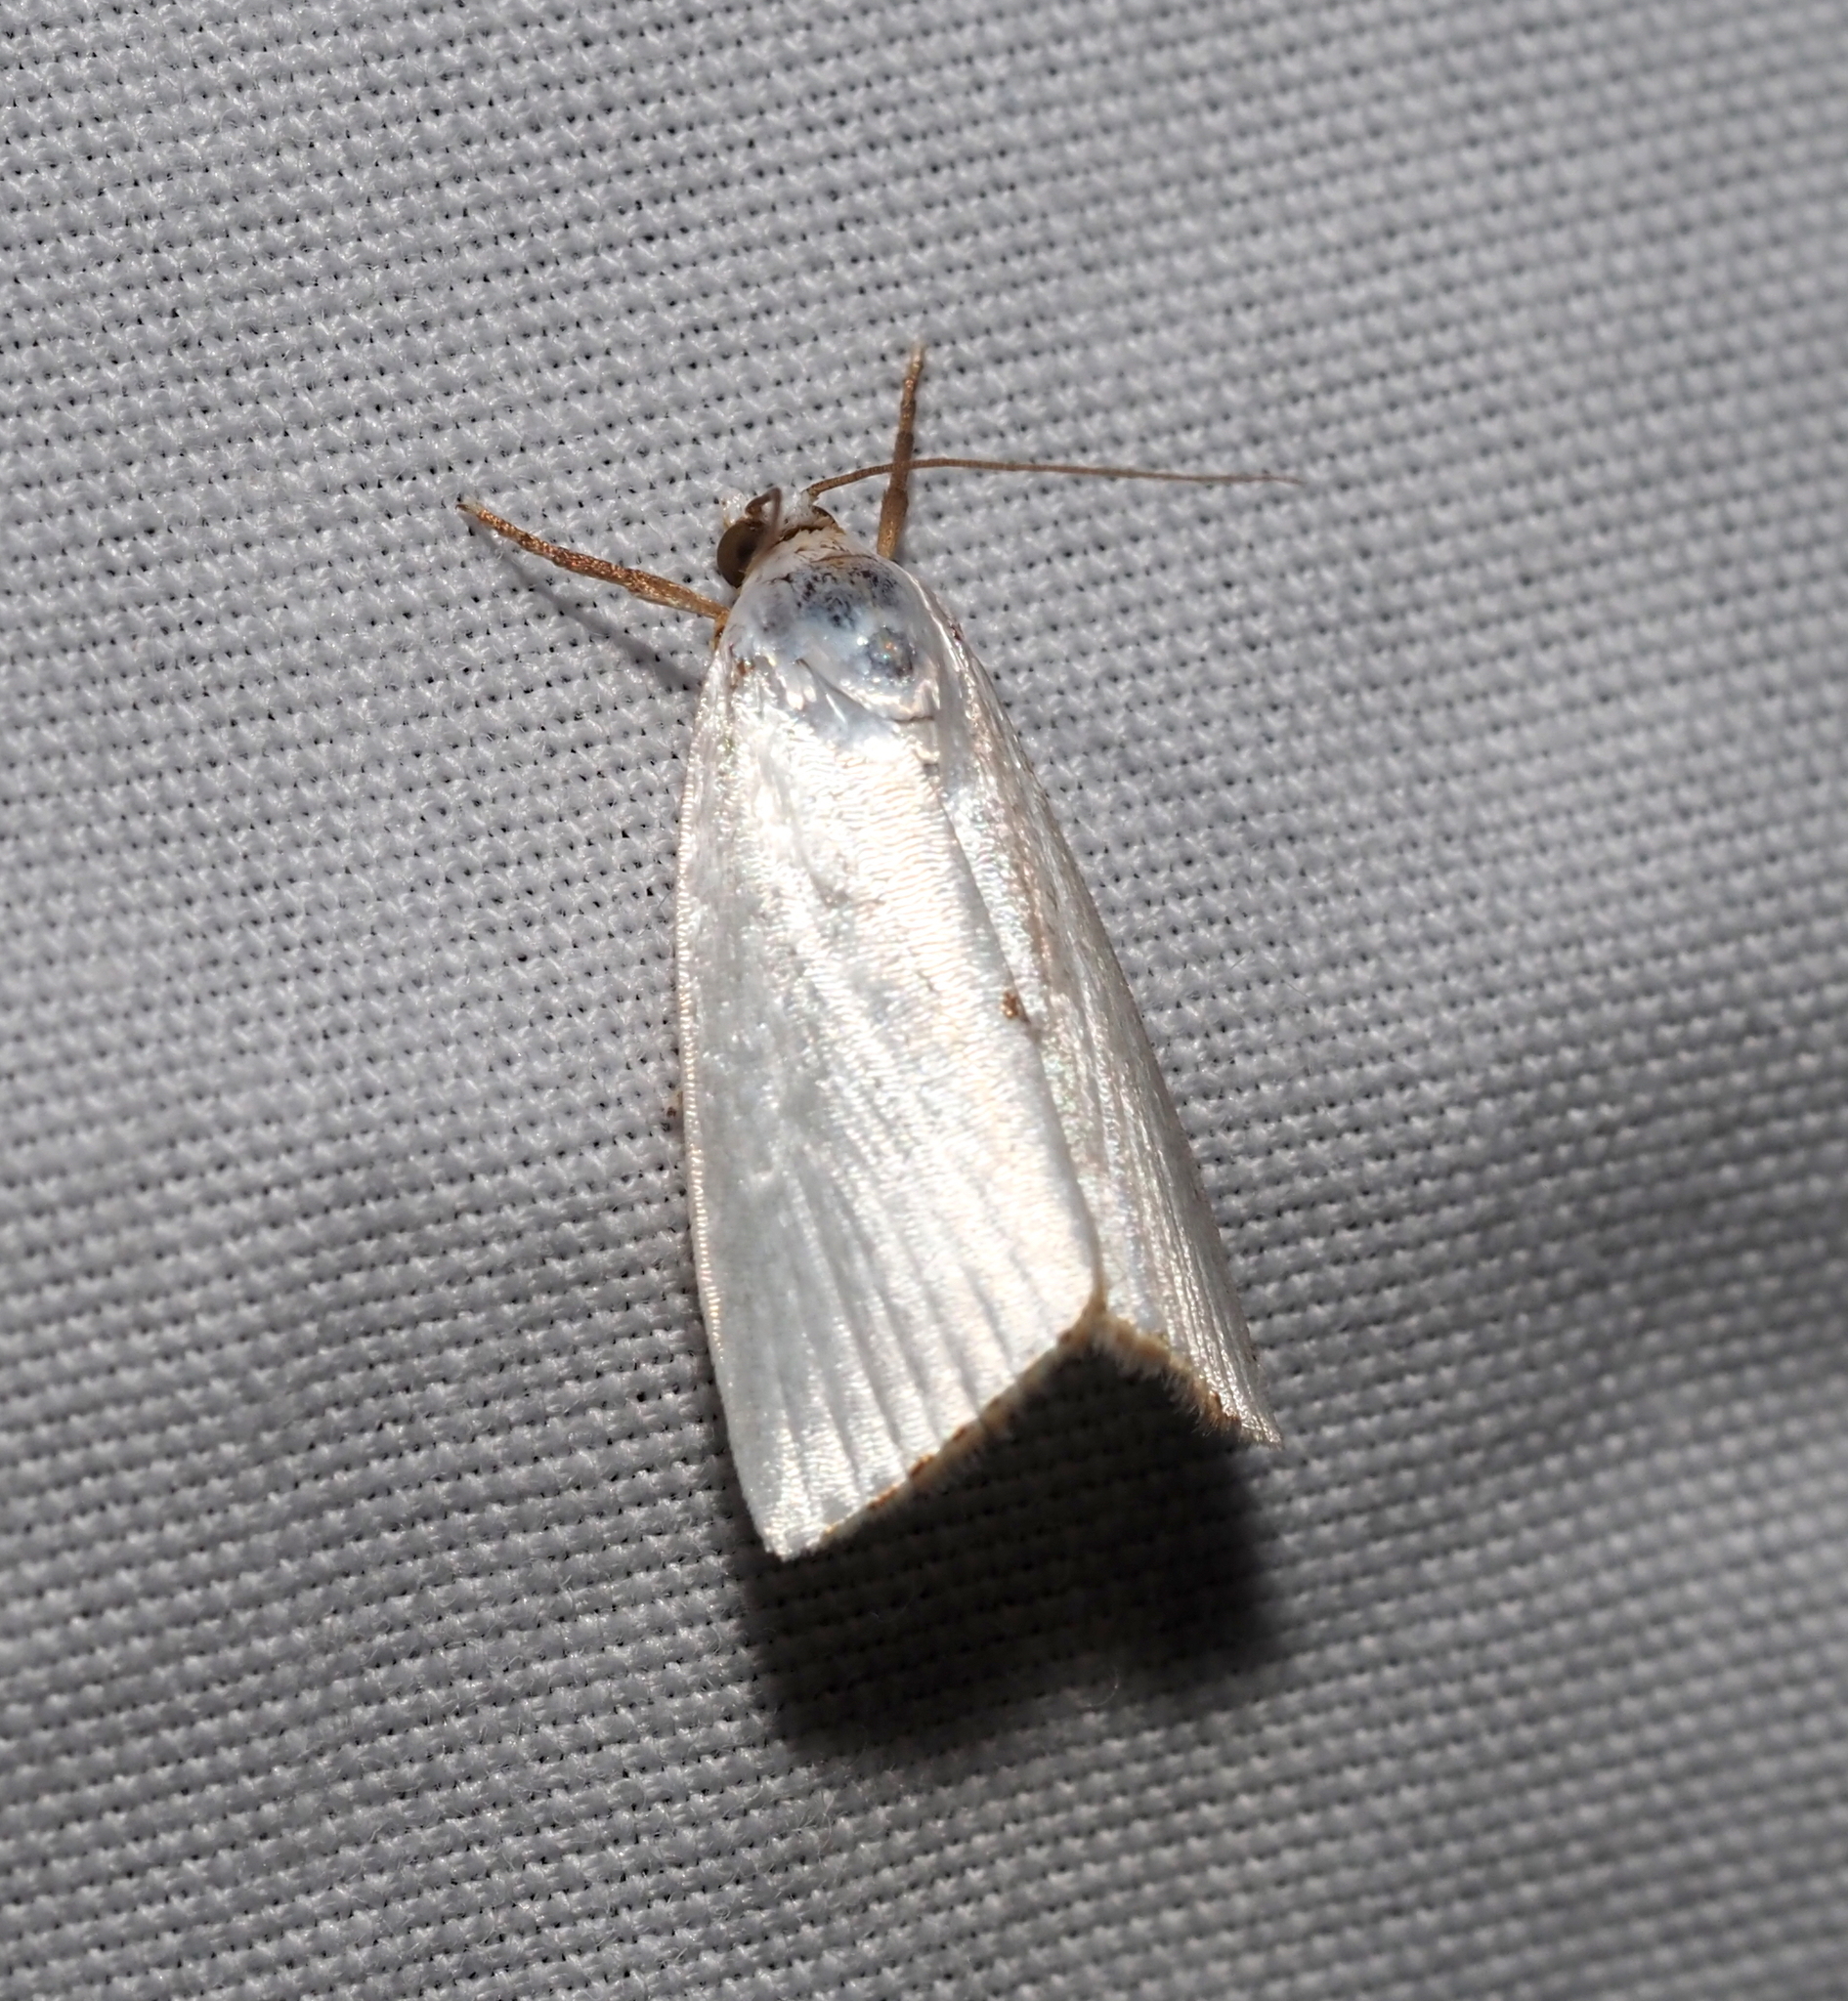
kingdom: Animalia
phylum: Arthropoda
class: Insecta
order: Lepidoptera
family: Crambidae
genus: Argyria
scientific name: Argyria nivalis
